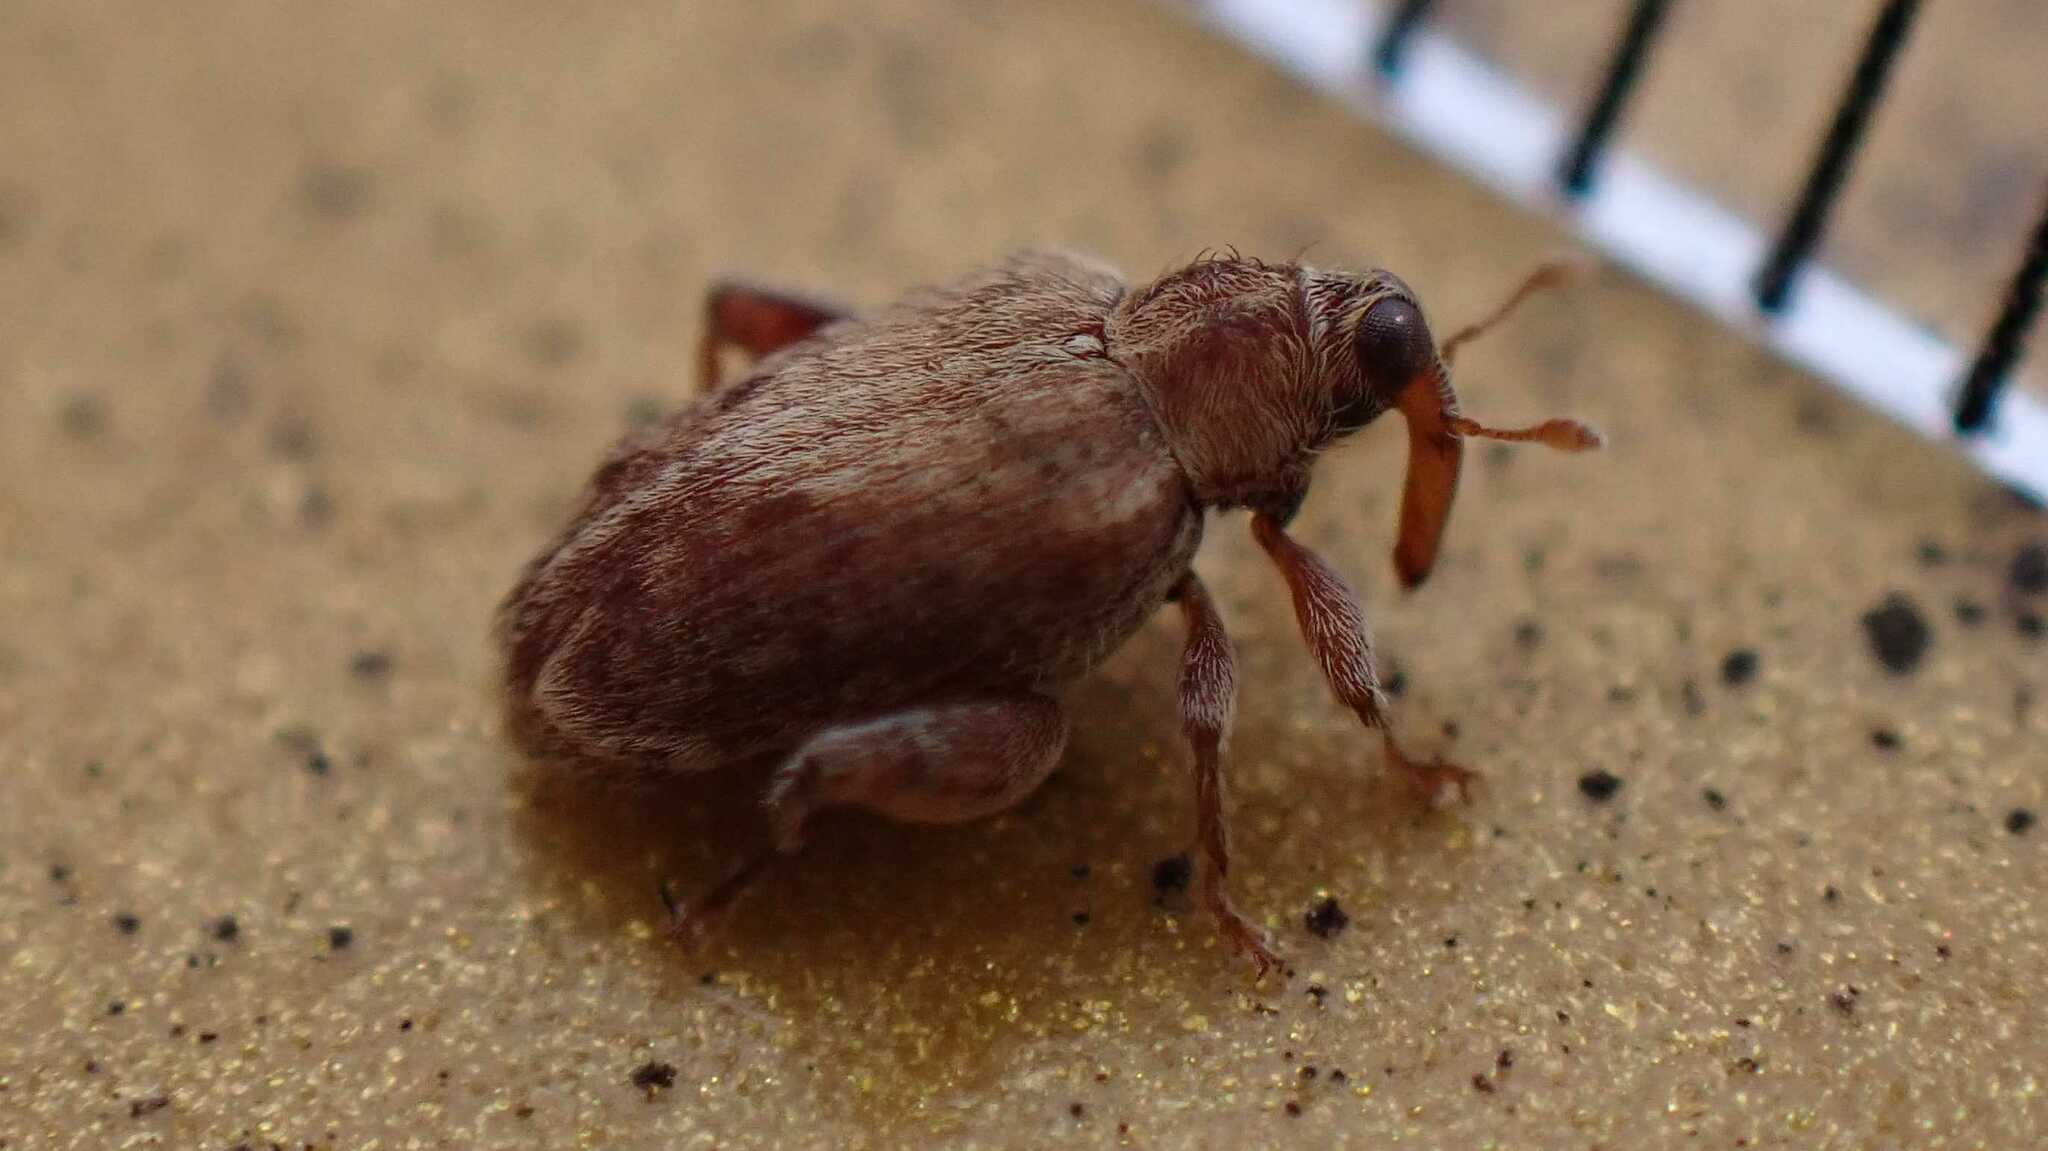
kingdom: Animalia
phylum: Arthropoda
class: Insecta
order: Coleoptera
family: Curculionidae
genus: Orchestes
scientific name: Orchestes quercus
